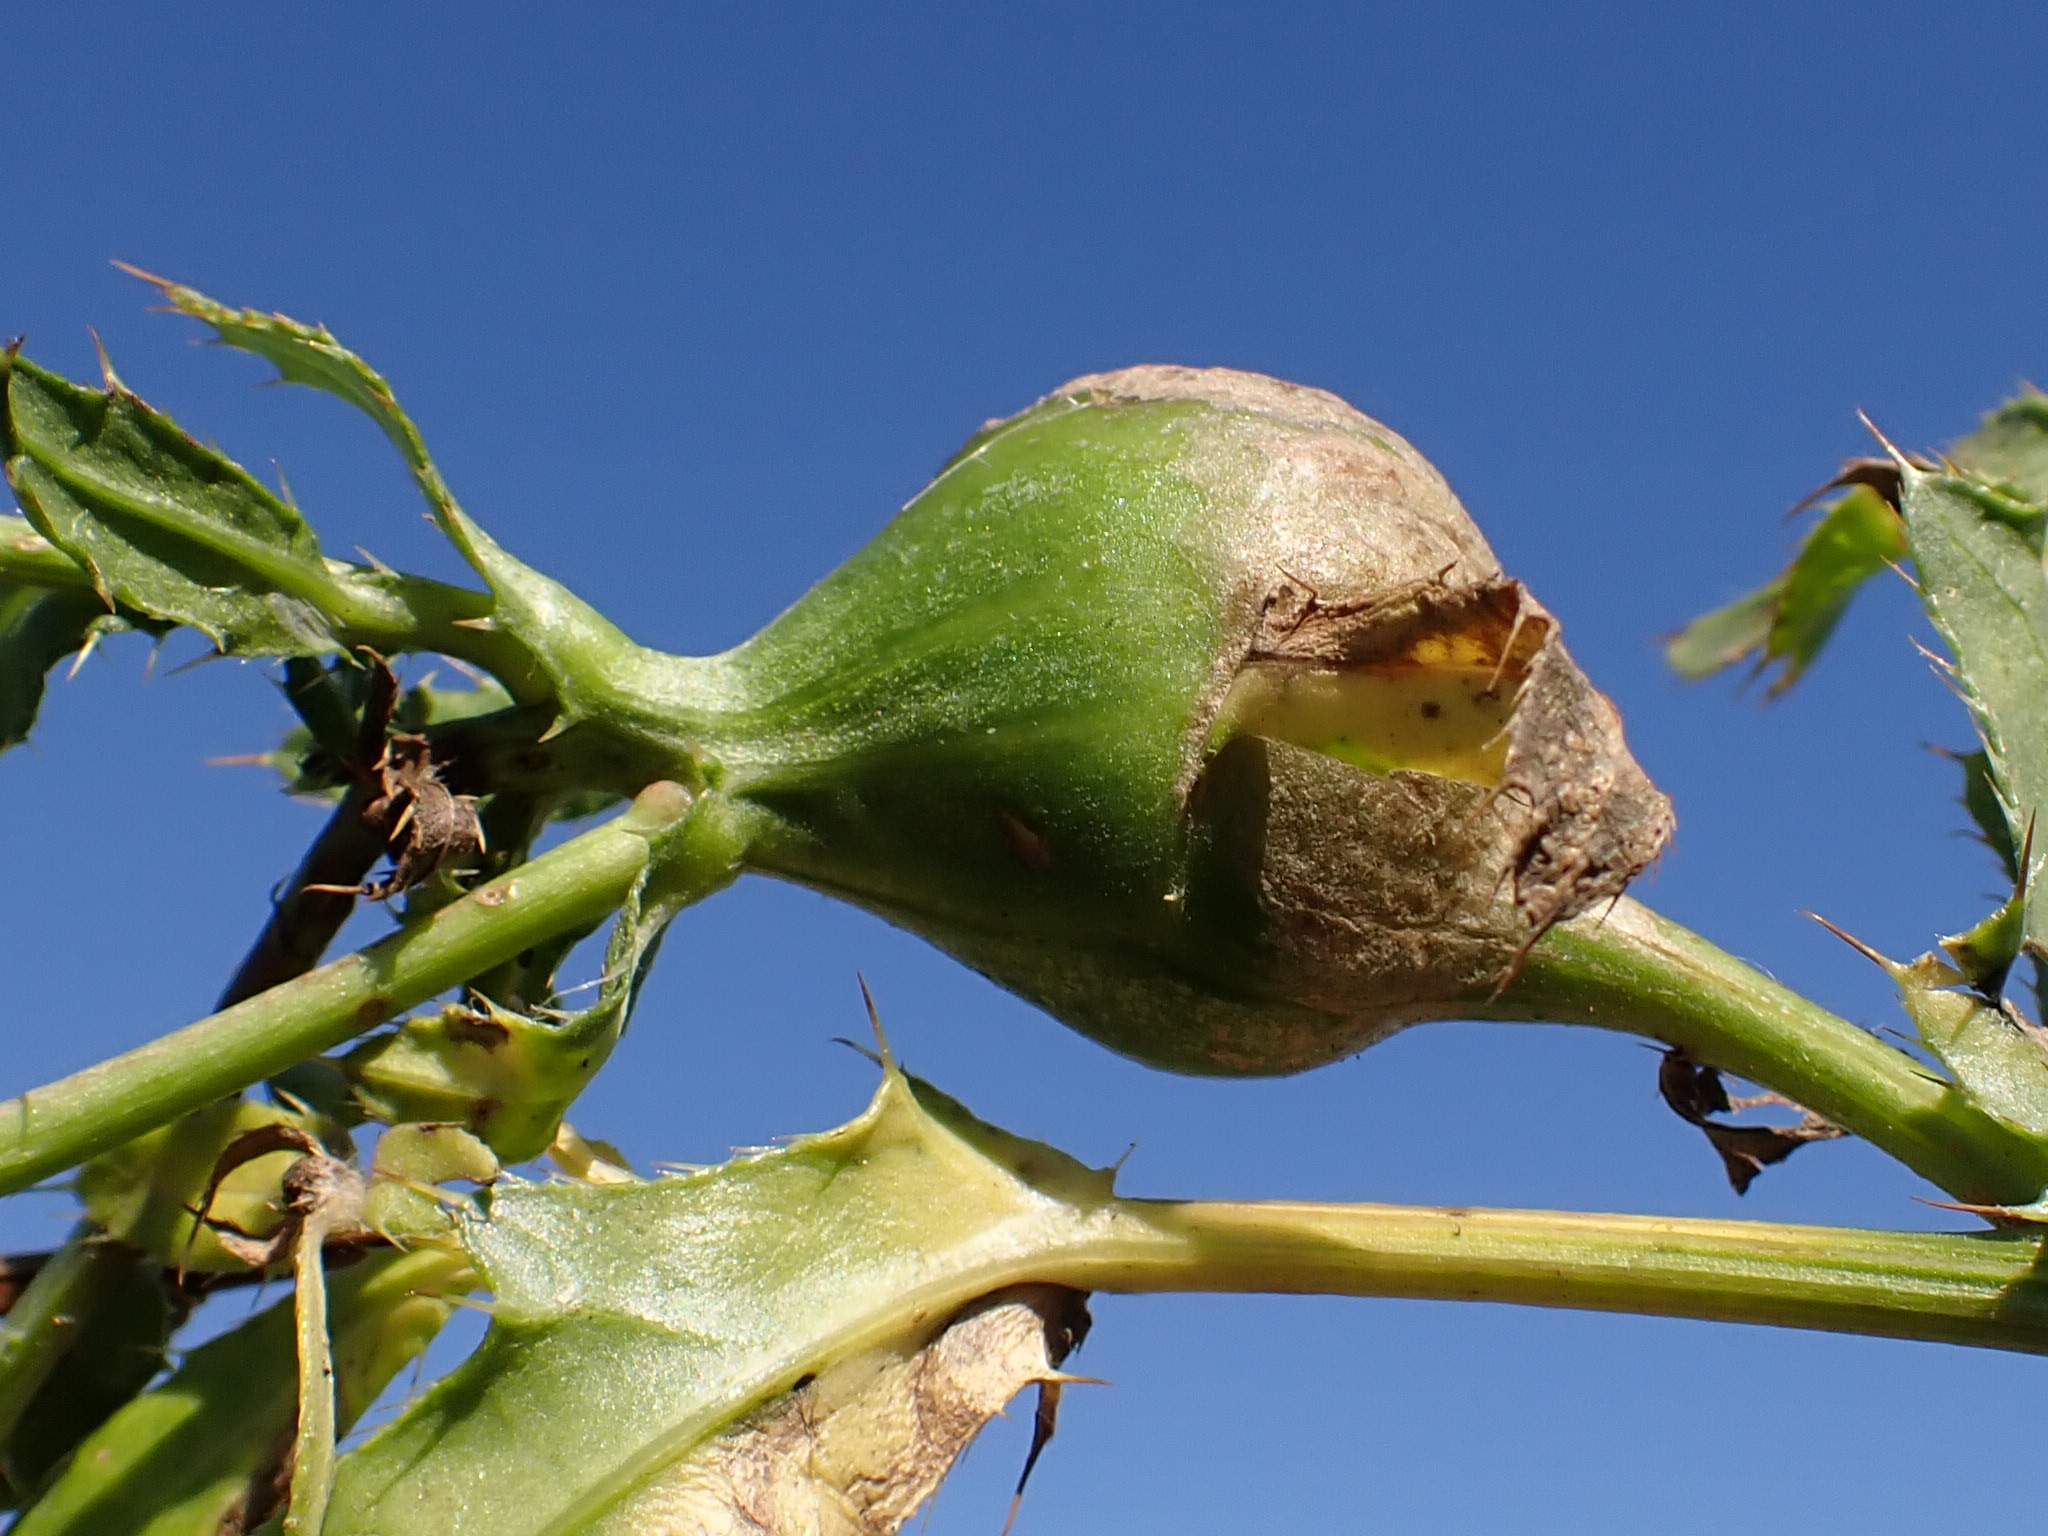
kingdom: Animalia
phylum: Arthropoda
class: Insecta
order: Diptera
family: Tephritidae
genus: Urophora
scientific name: Urophora cardui
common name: Fruit fly
